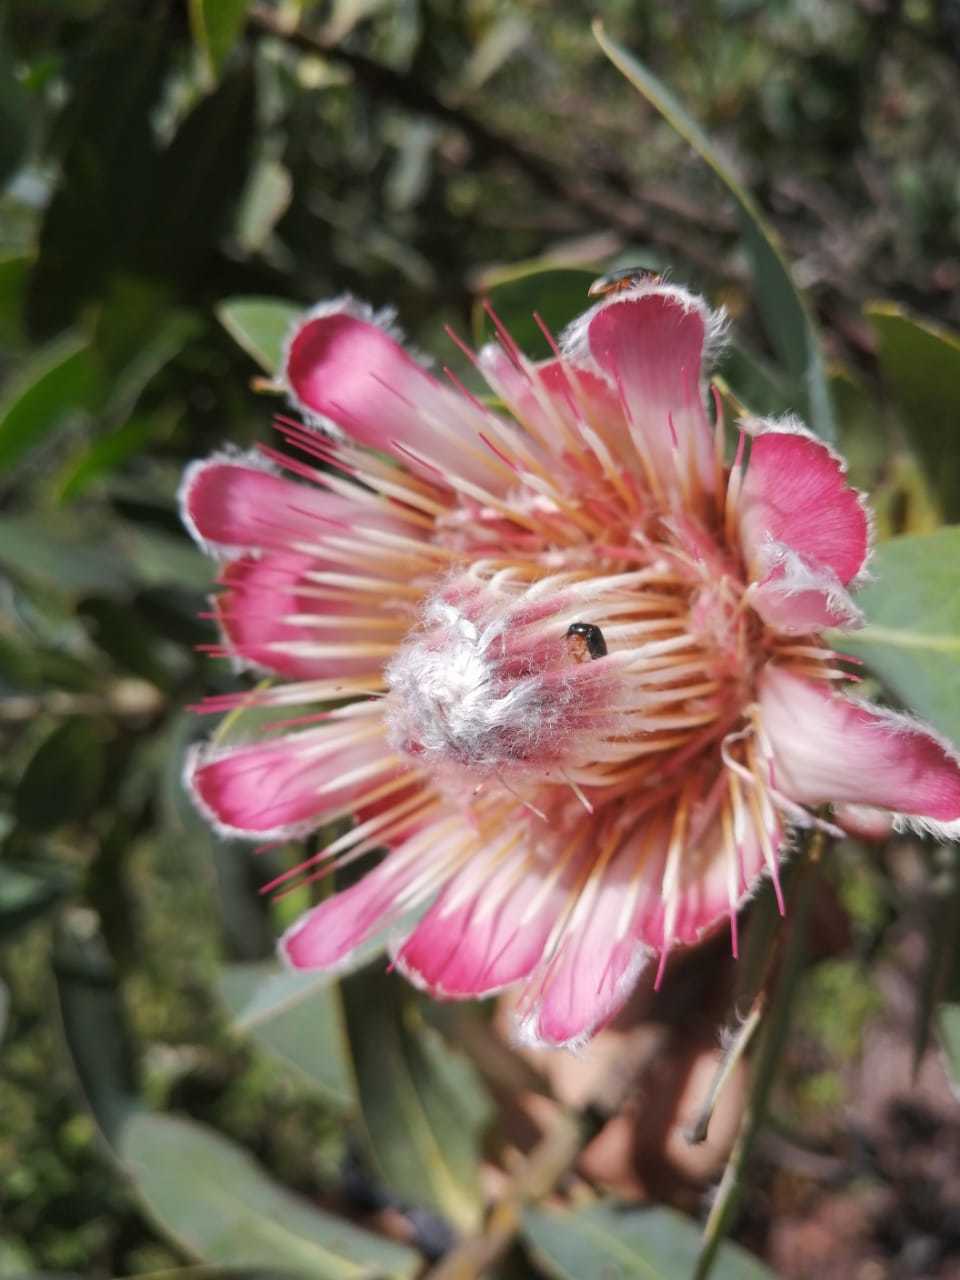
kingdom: Plantae
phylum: Tracheophyta
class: Magnoliopsida
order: Proteales
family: Proteaceae
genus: Protea
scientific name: Protea subvestita
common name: Lip-flower sugarbush
